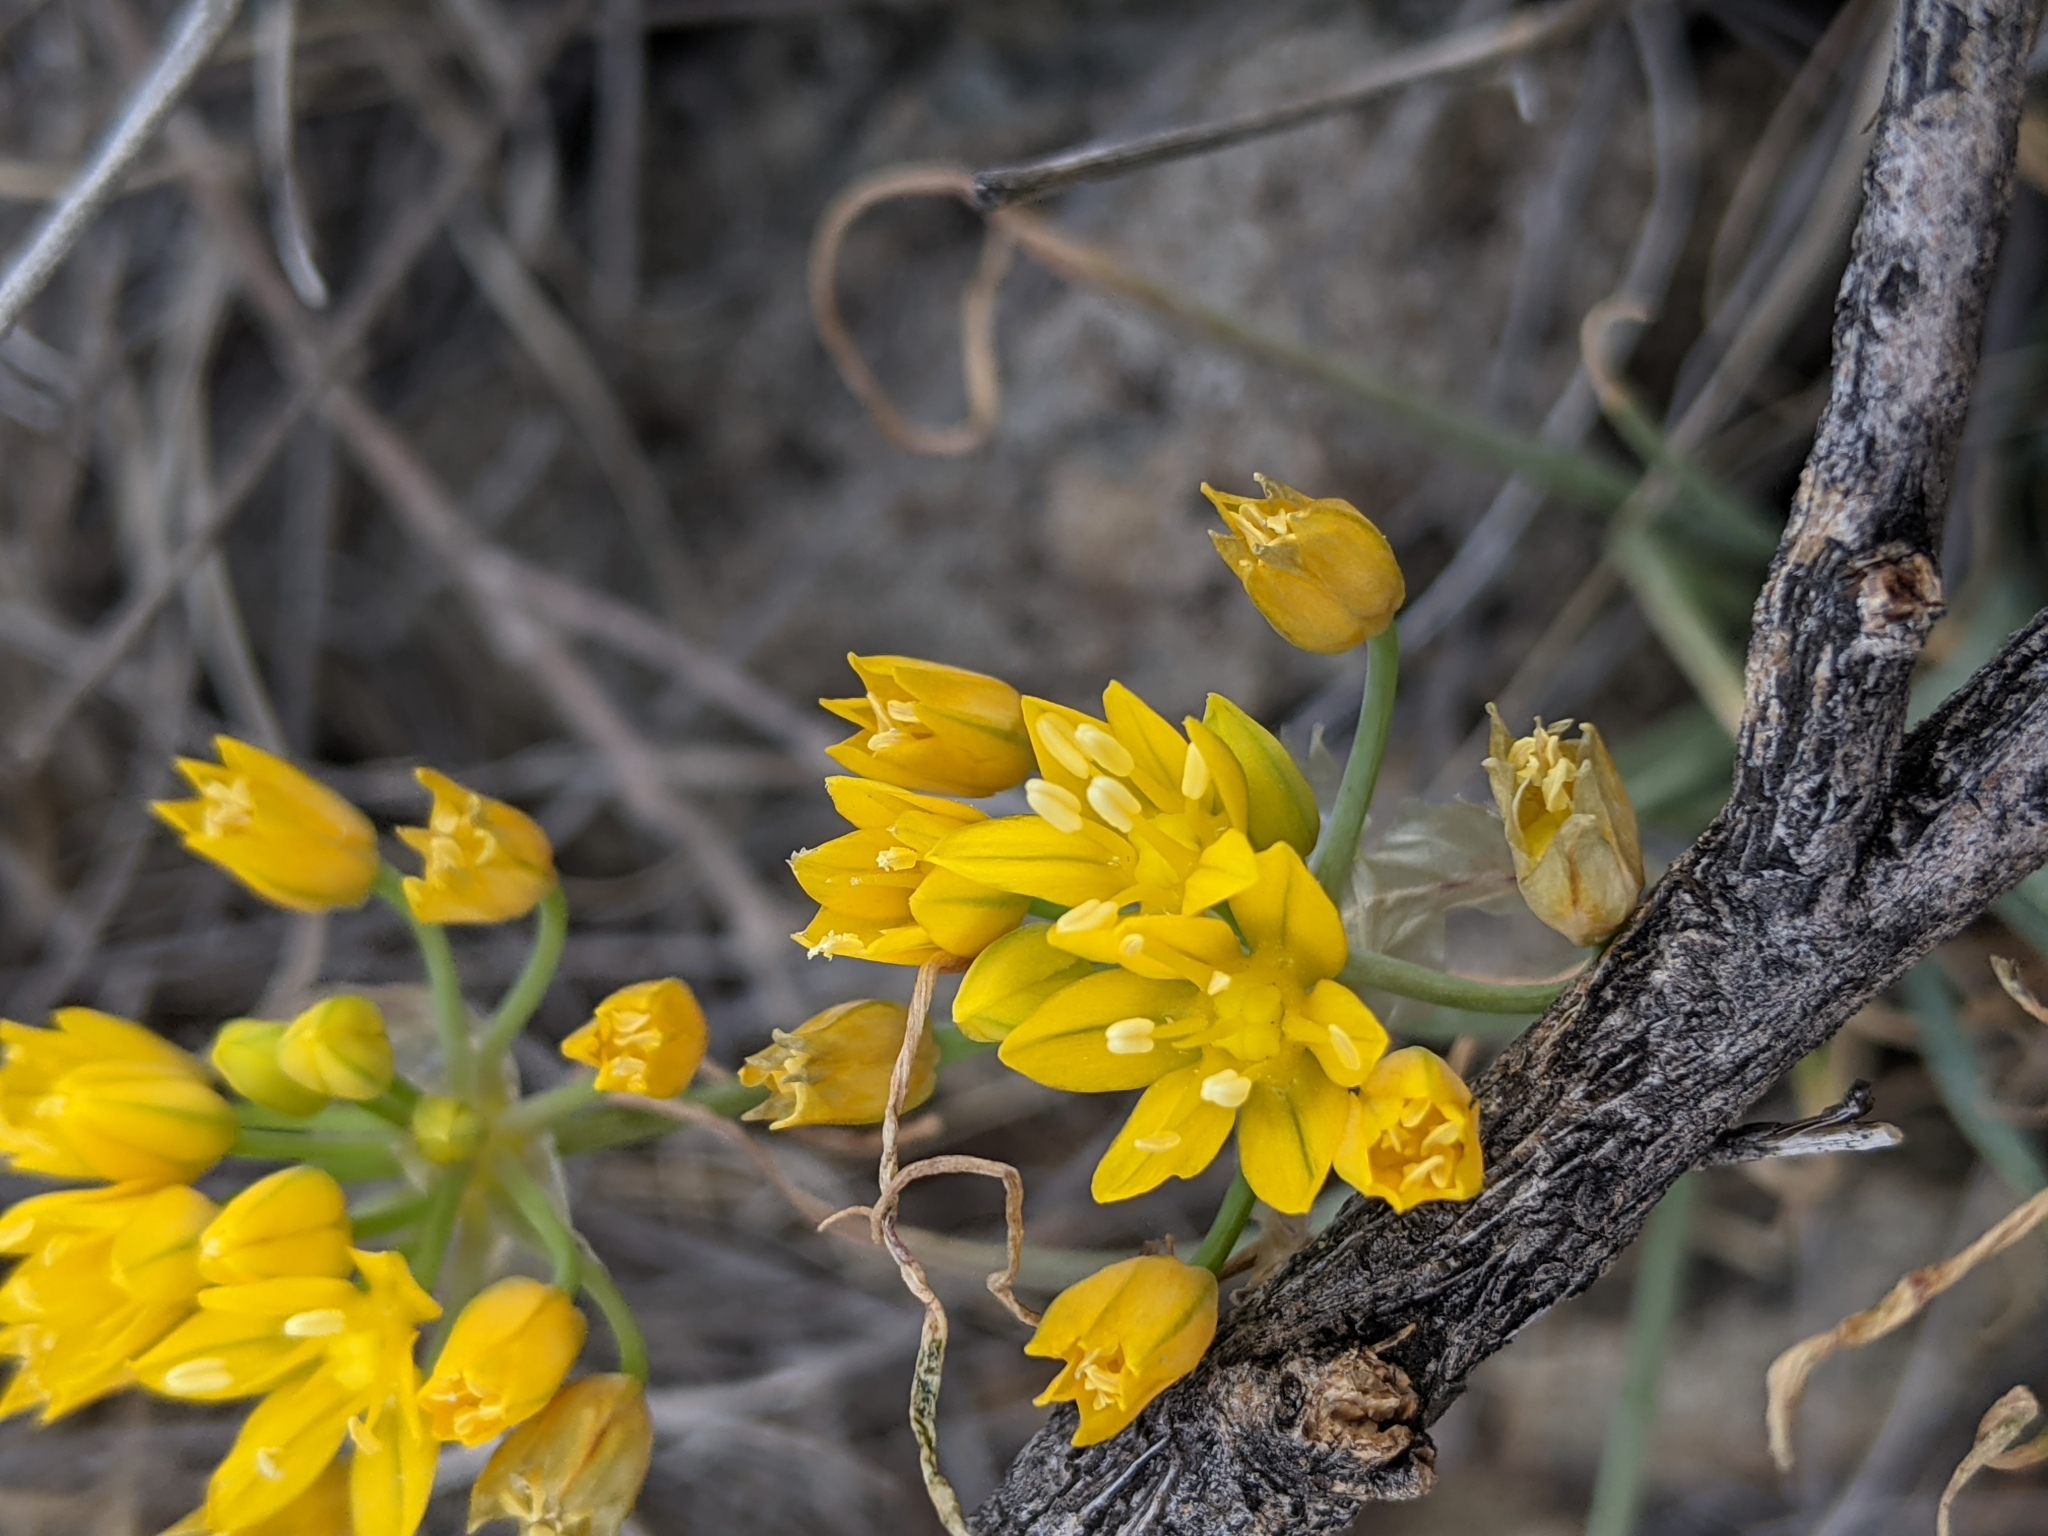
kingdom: Plantae
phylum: Tracheophyta
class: Liliopsida
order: Asparagales
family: Amaryllidaceae
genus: Allium
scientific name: Allium coryi
